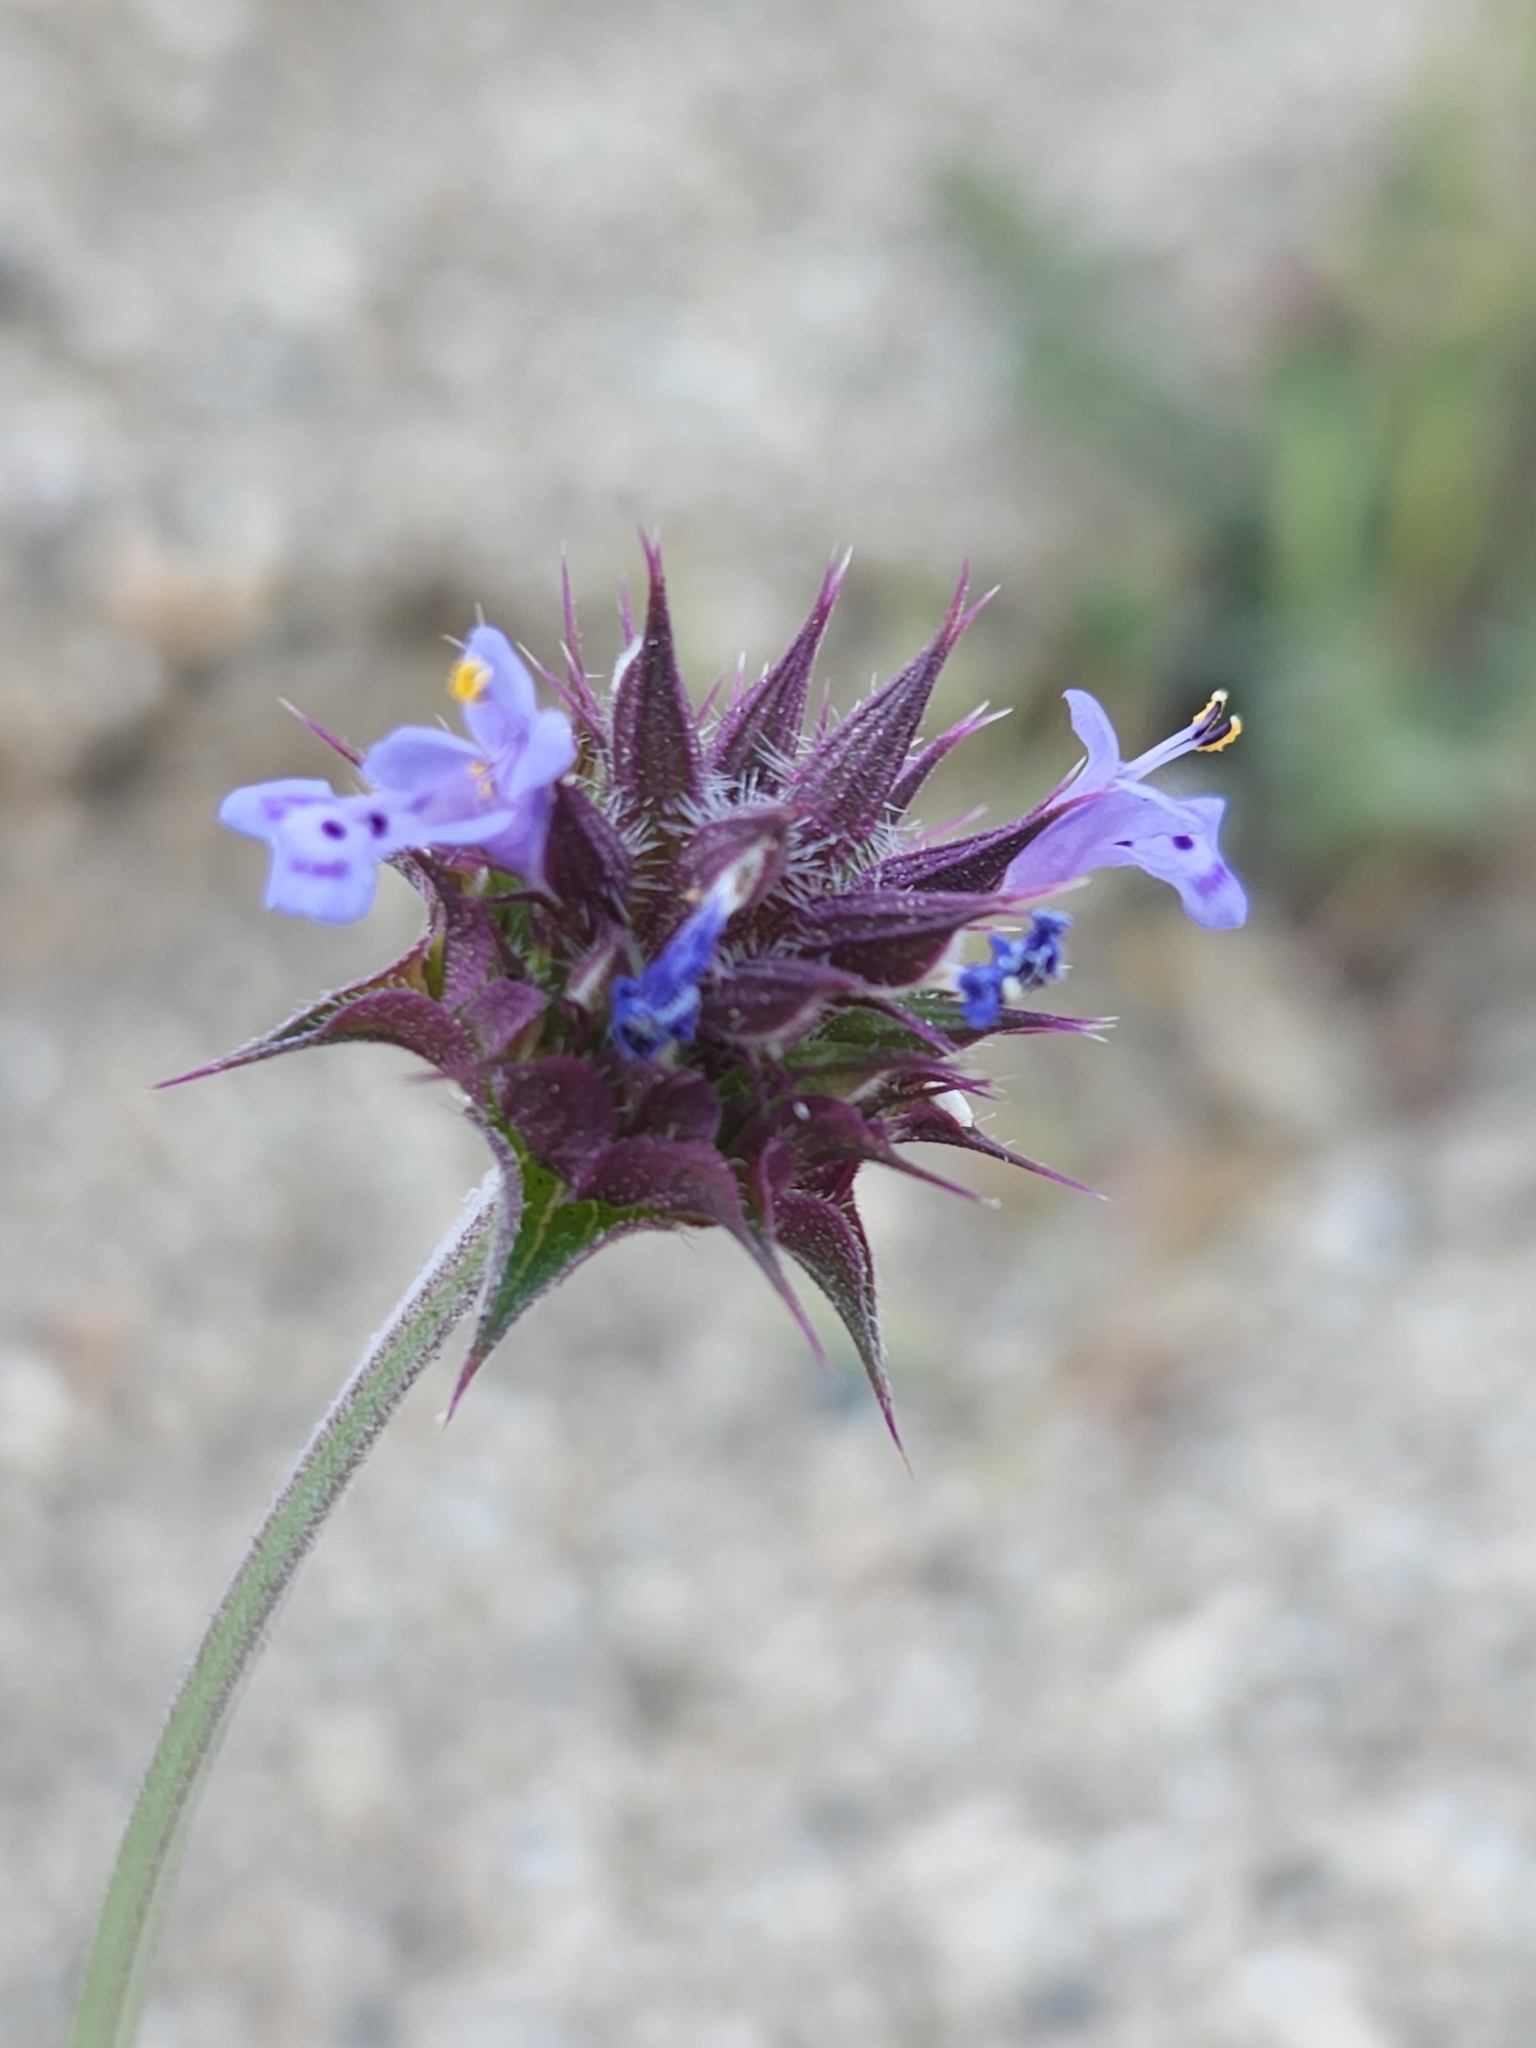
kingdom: Plantae
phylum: Tracheophyta
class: Magnoliopsida
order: Lamiales
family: Lamiaceae
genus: Salvia
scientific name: Salvia columbariae
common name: Chia
